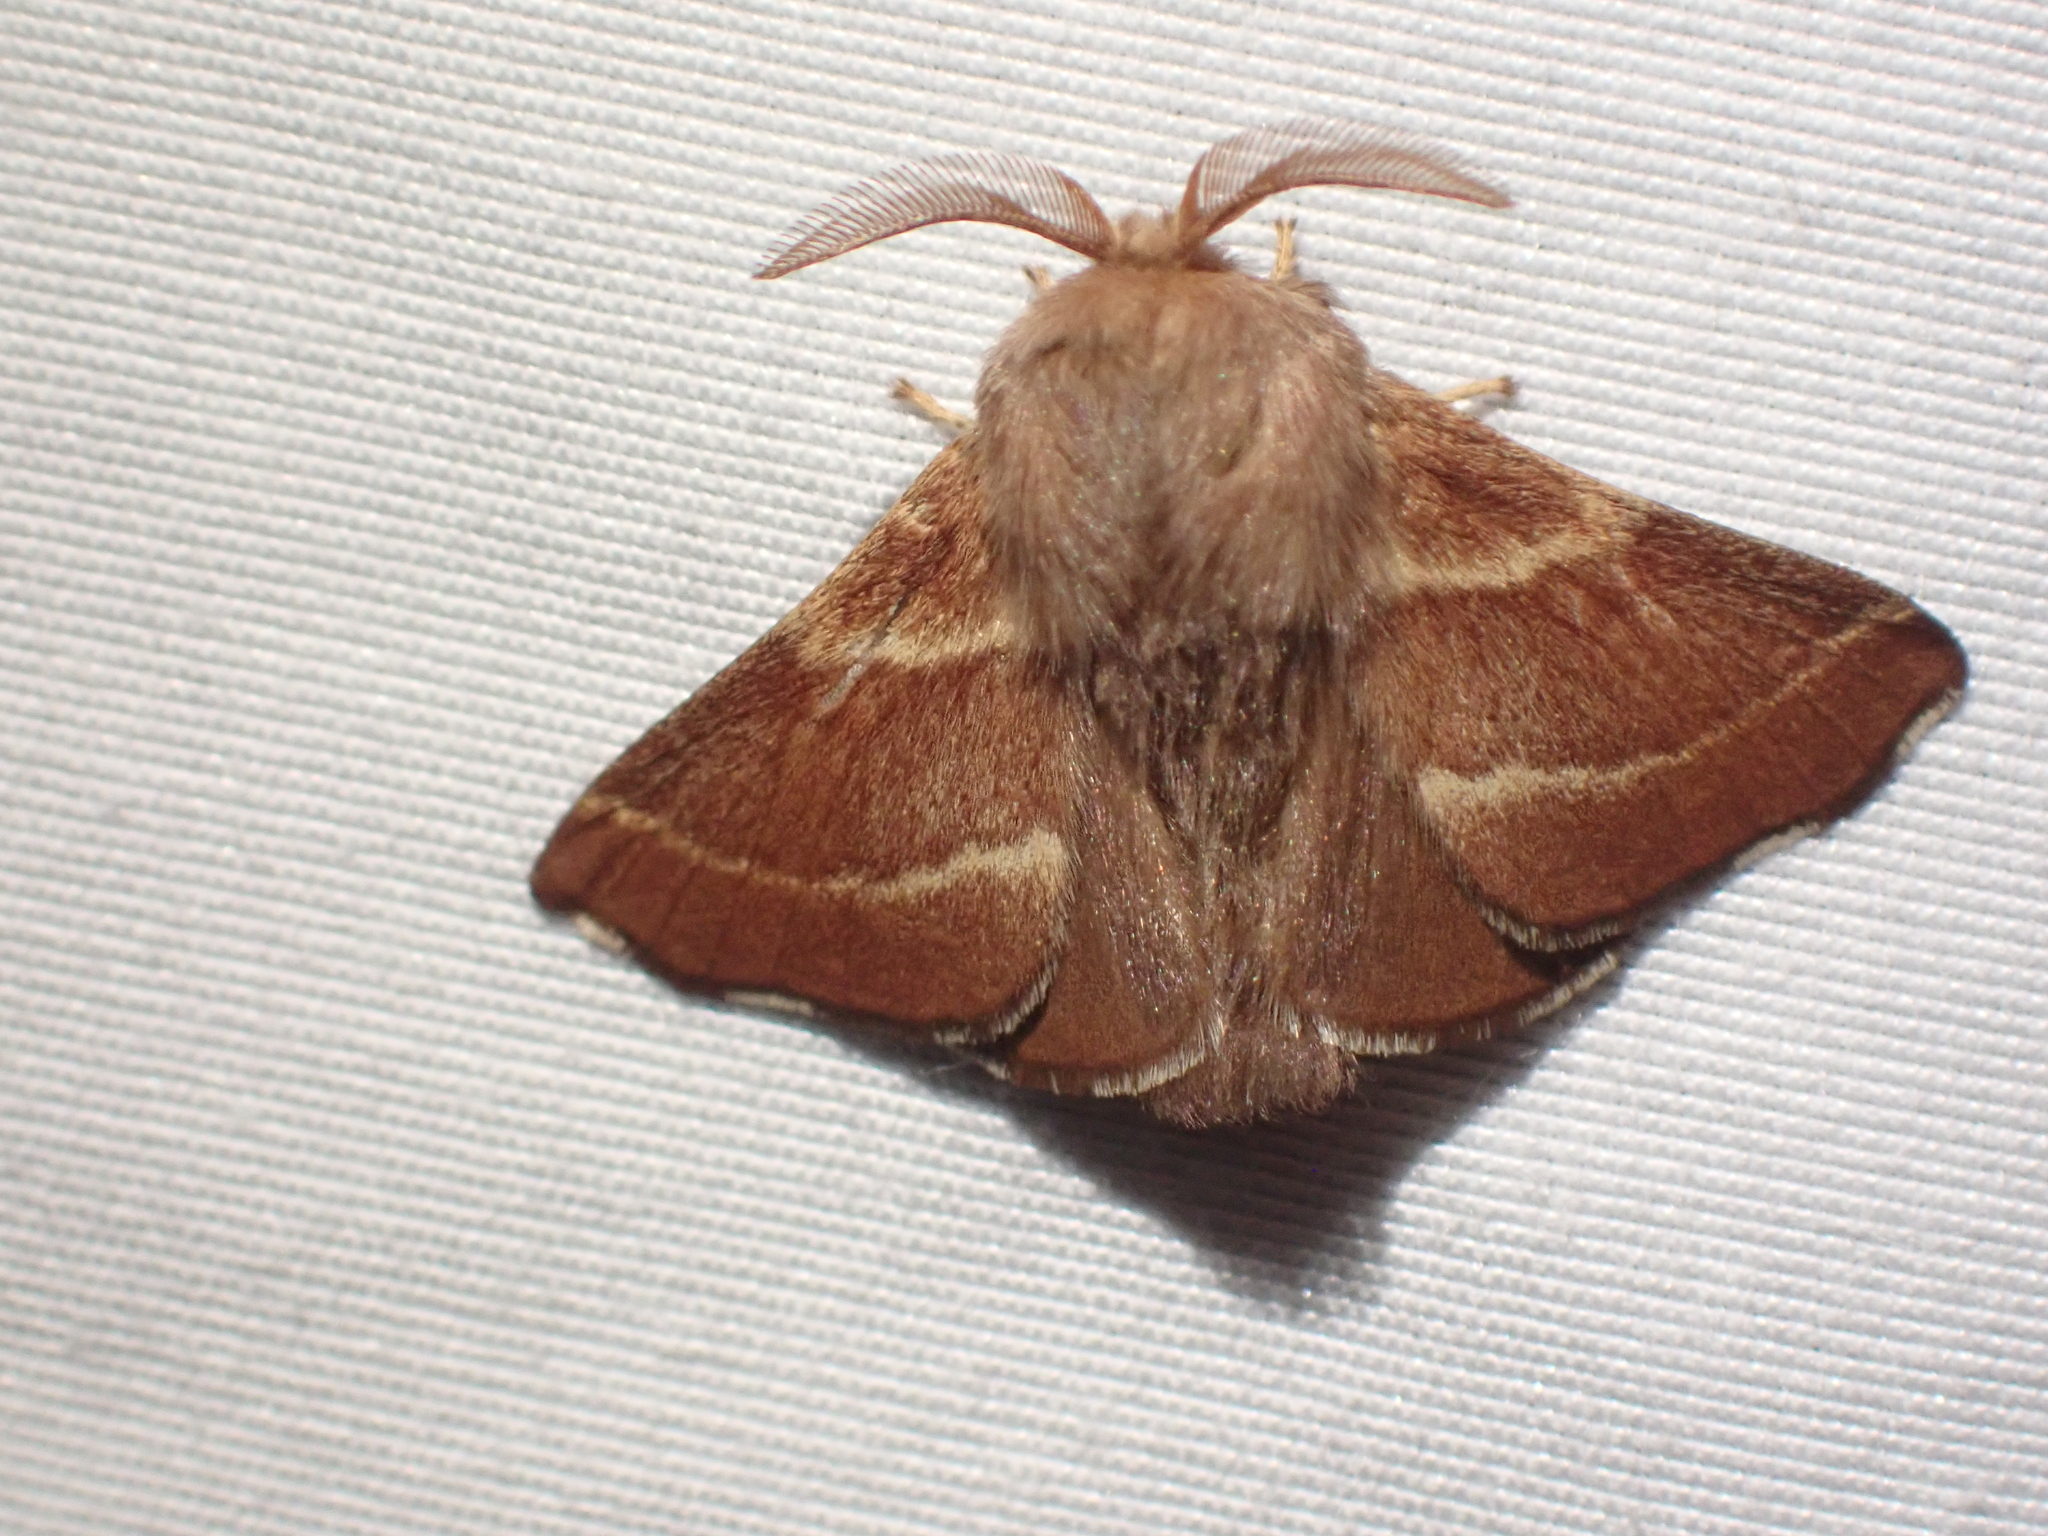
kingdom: Animalia
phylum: Arthropoda
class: Insecta
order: Lepidoptera
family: Lasiocampidae
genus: Malacosoma
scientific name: Malacosoma californica
